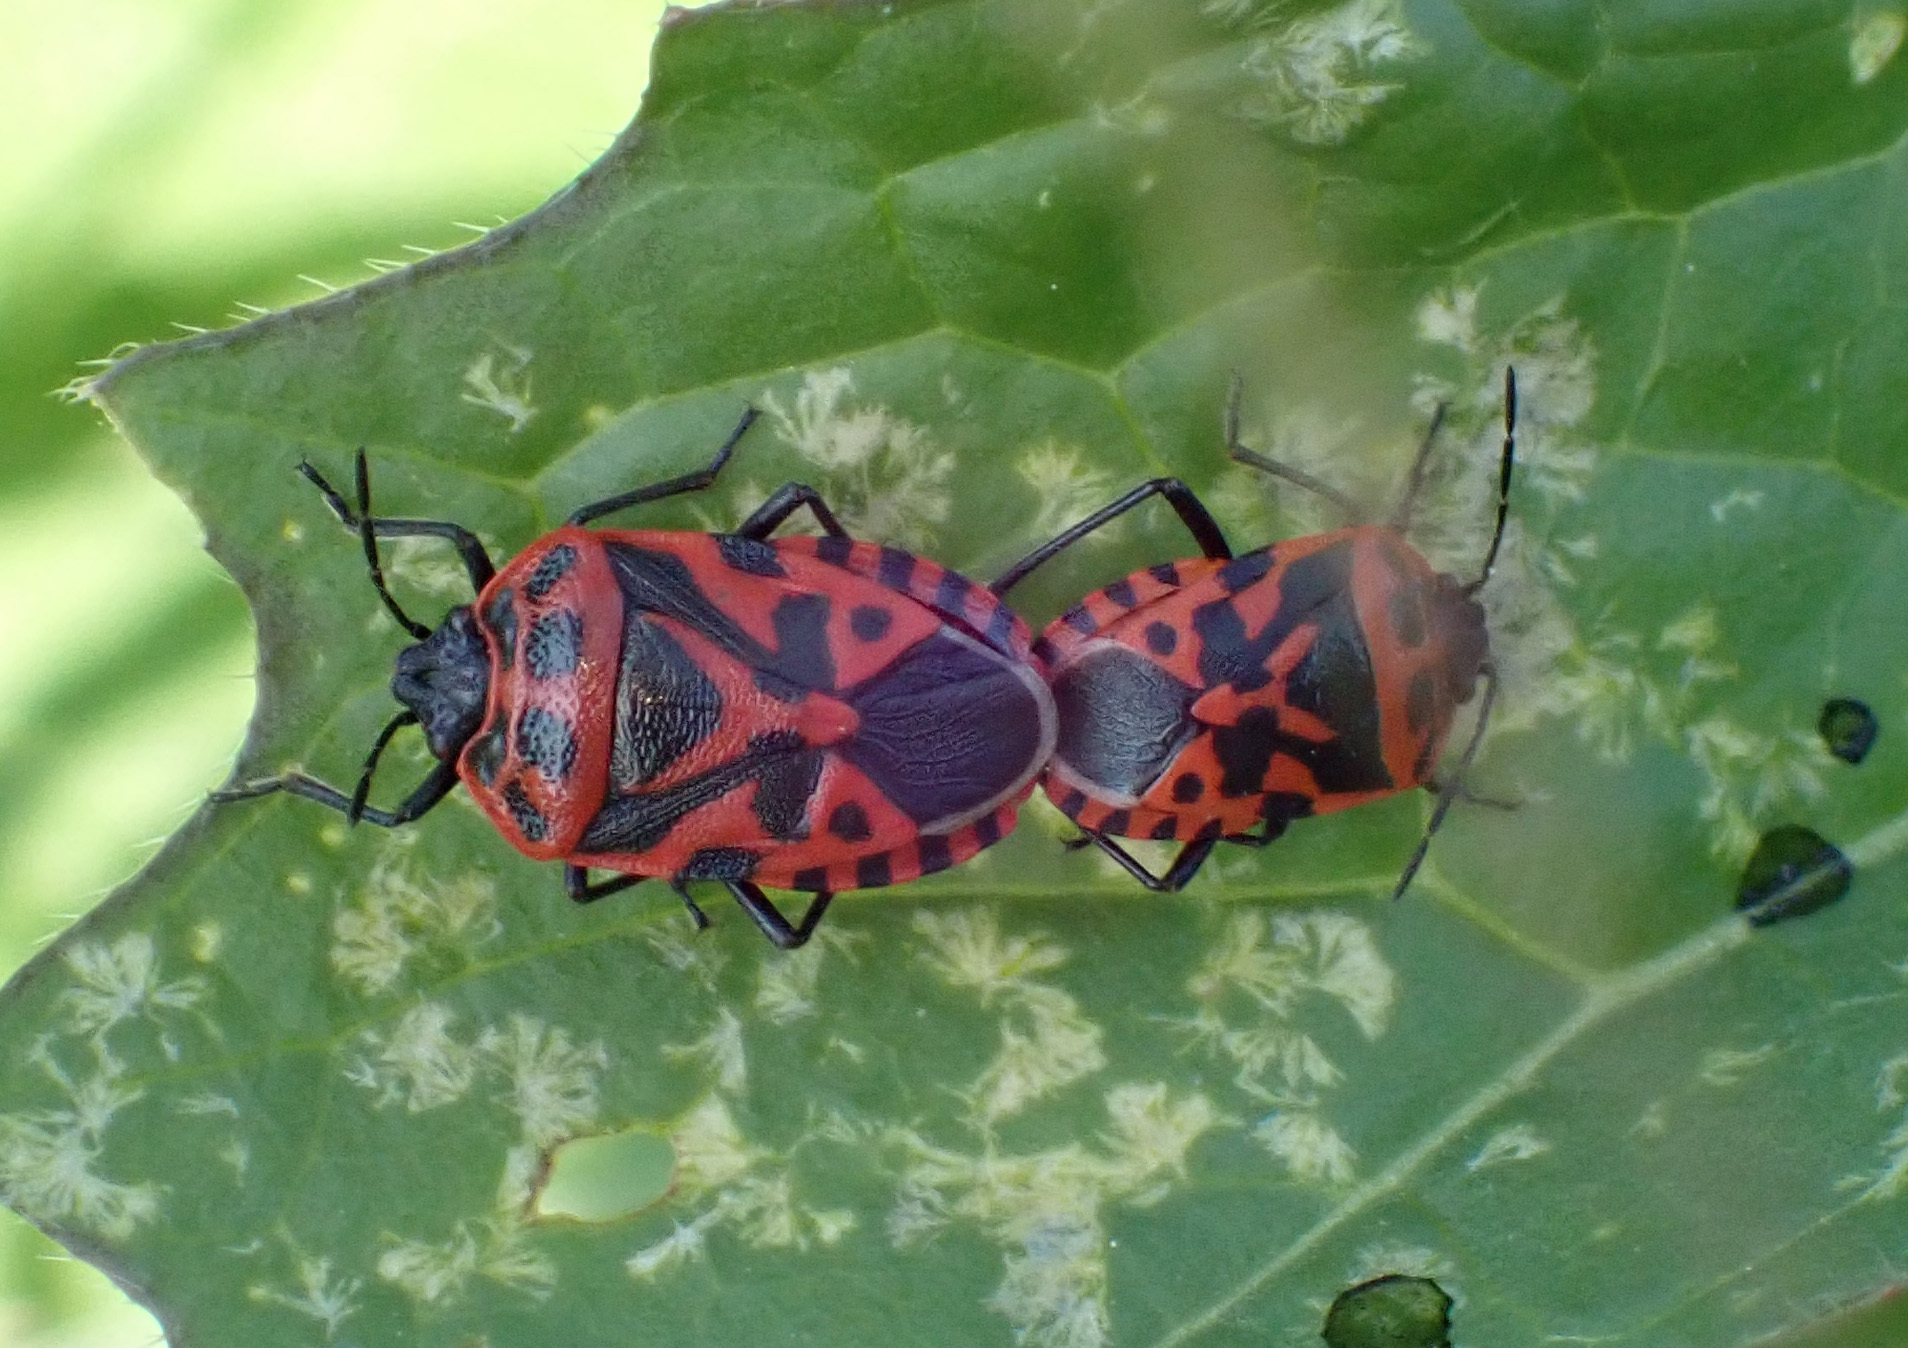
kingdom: Animalia
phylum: Arthropoda
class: Insecta
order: Hemiptera
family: Pentatomidae
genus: Eurydema
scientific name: Eurydema ventralis
